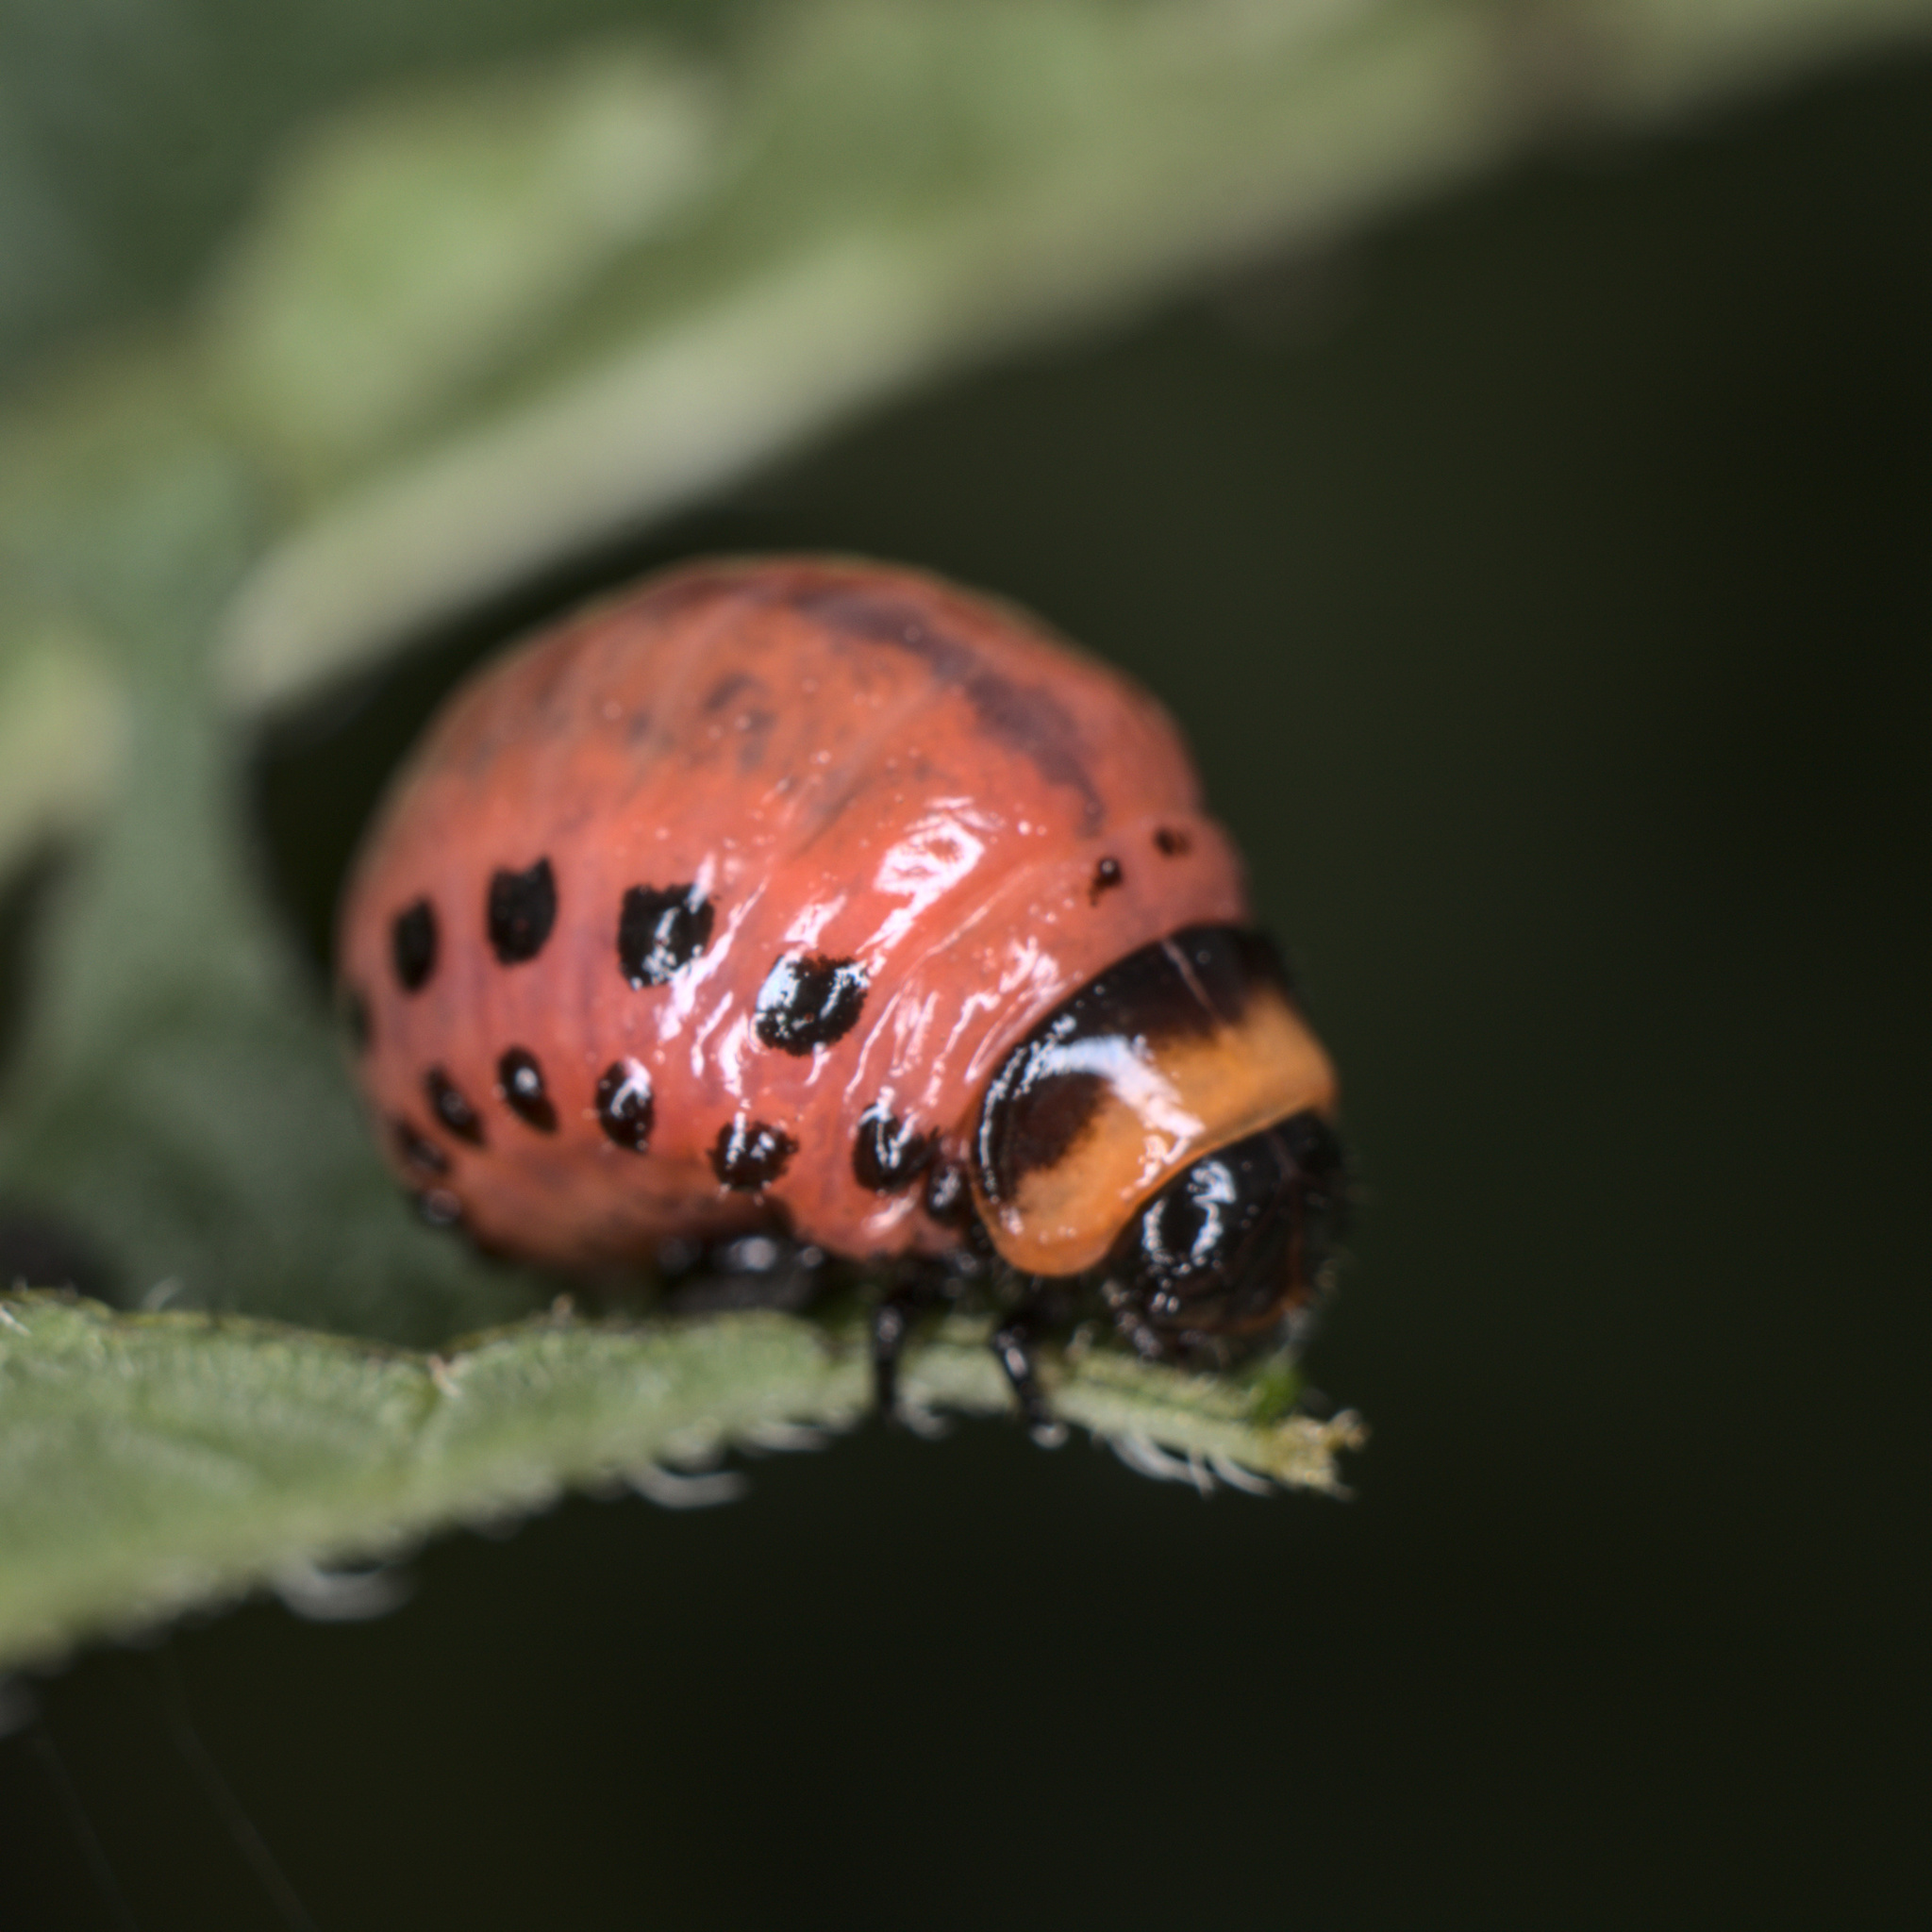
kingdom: Animalia
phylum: Arthropoda
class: Insecta
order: Coleoptera
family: Chrysomelidae
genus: Leptinotarsa
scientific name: Leptinotarsa decemlineata
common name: Colorado potato beetle
